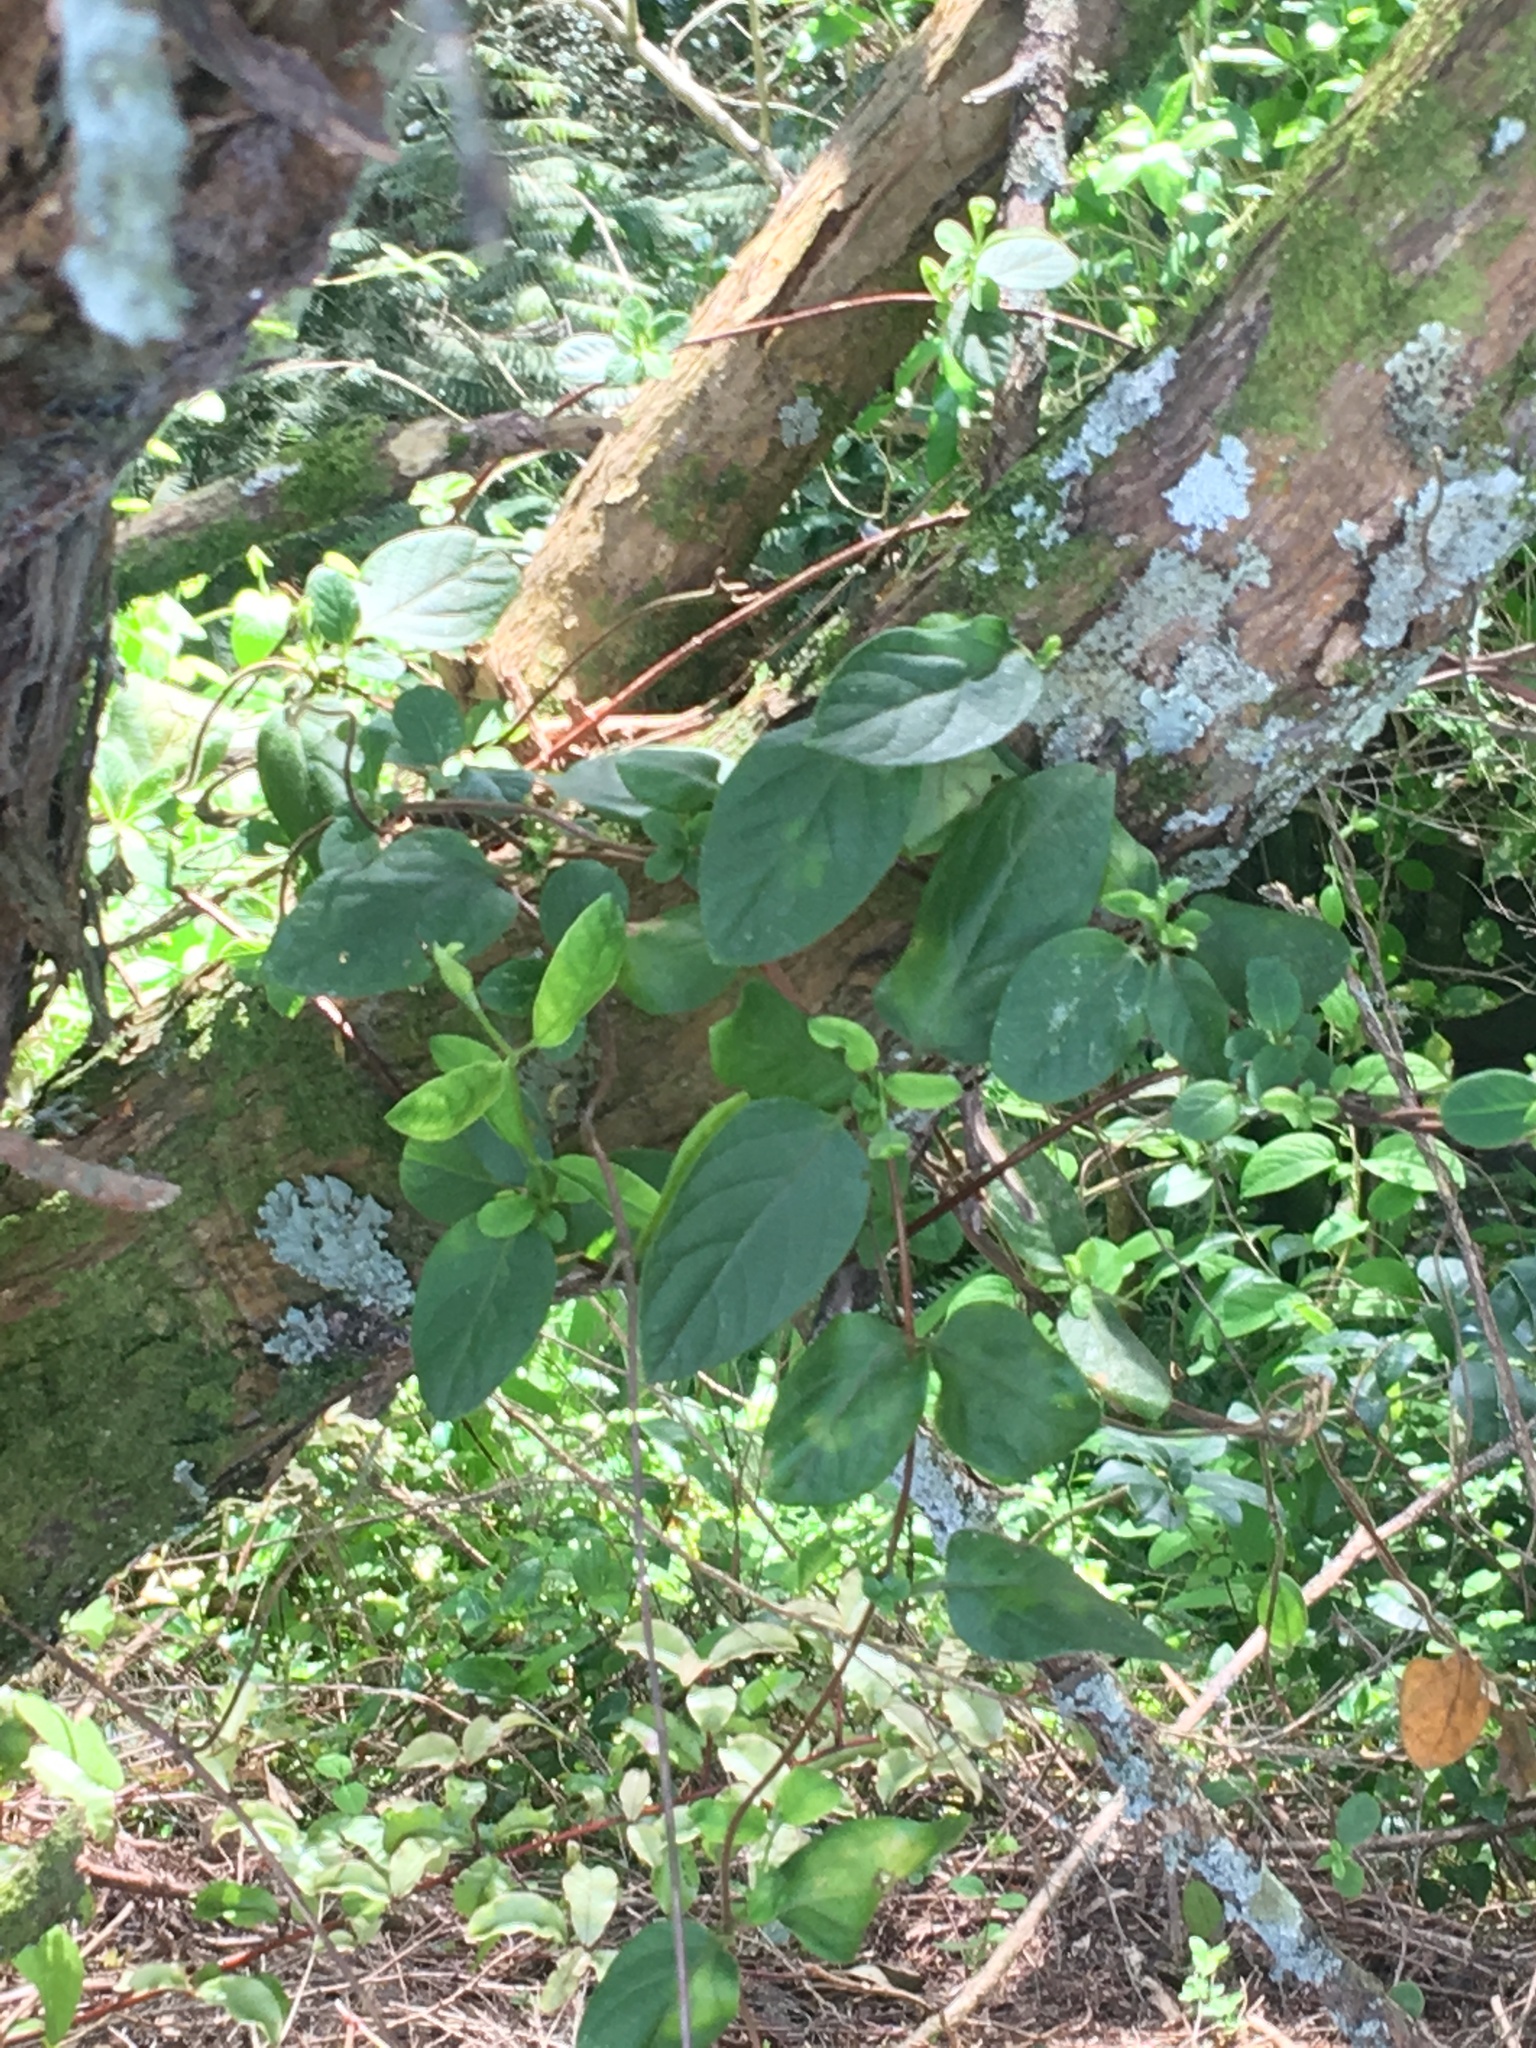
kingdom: Plantae
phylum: Tracheophyta
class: Magnoliopsida
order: Dipsacales
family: Caprifoliaceae
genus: Lonicera
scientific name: Lonicera japonica
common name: Japanese honeysuckle
